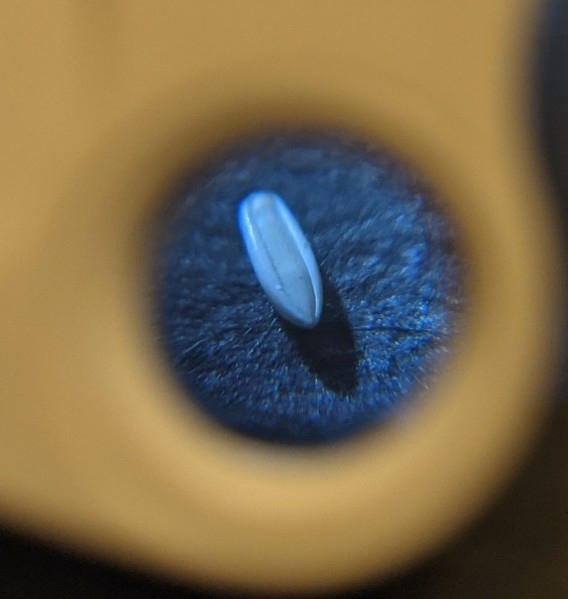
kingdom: Plantae
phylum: Tracheophyta
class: Liliopsida
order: Poales
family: Poaceae
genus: Panicum
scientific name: Panicum capillarioides
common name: Long-beak witchgrass
